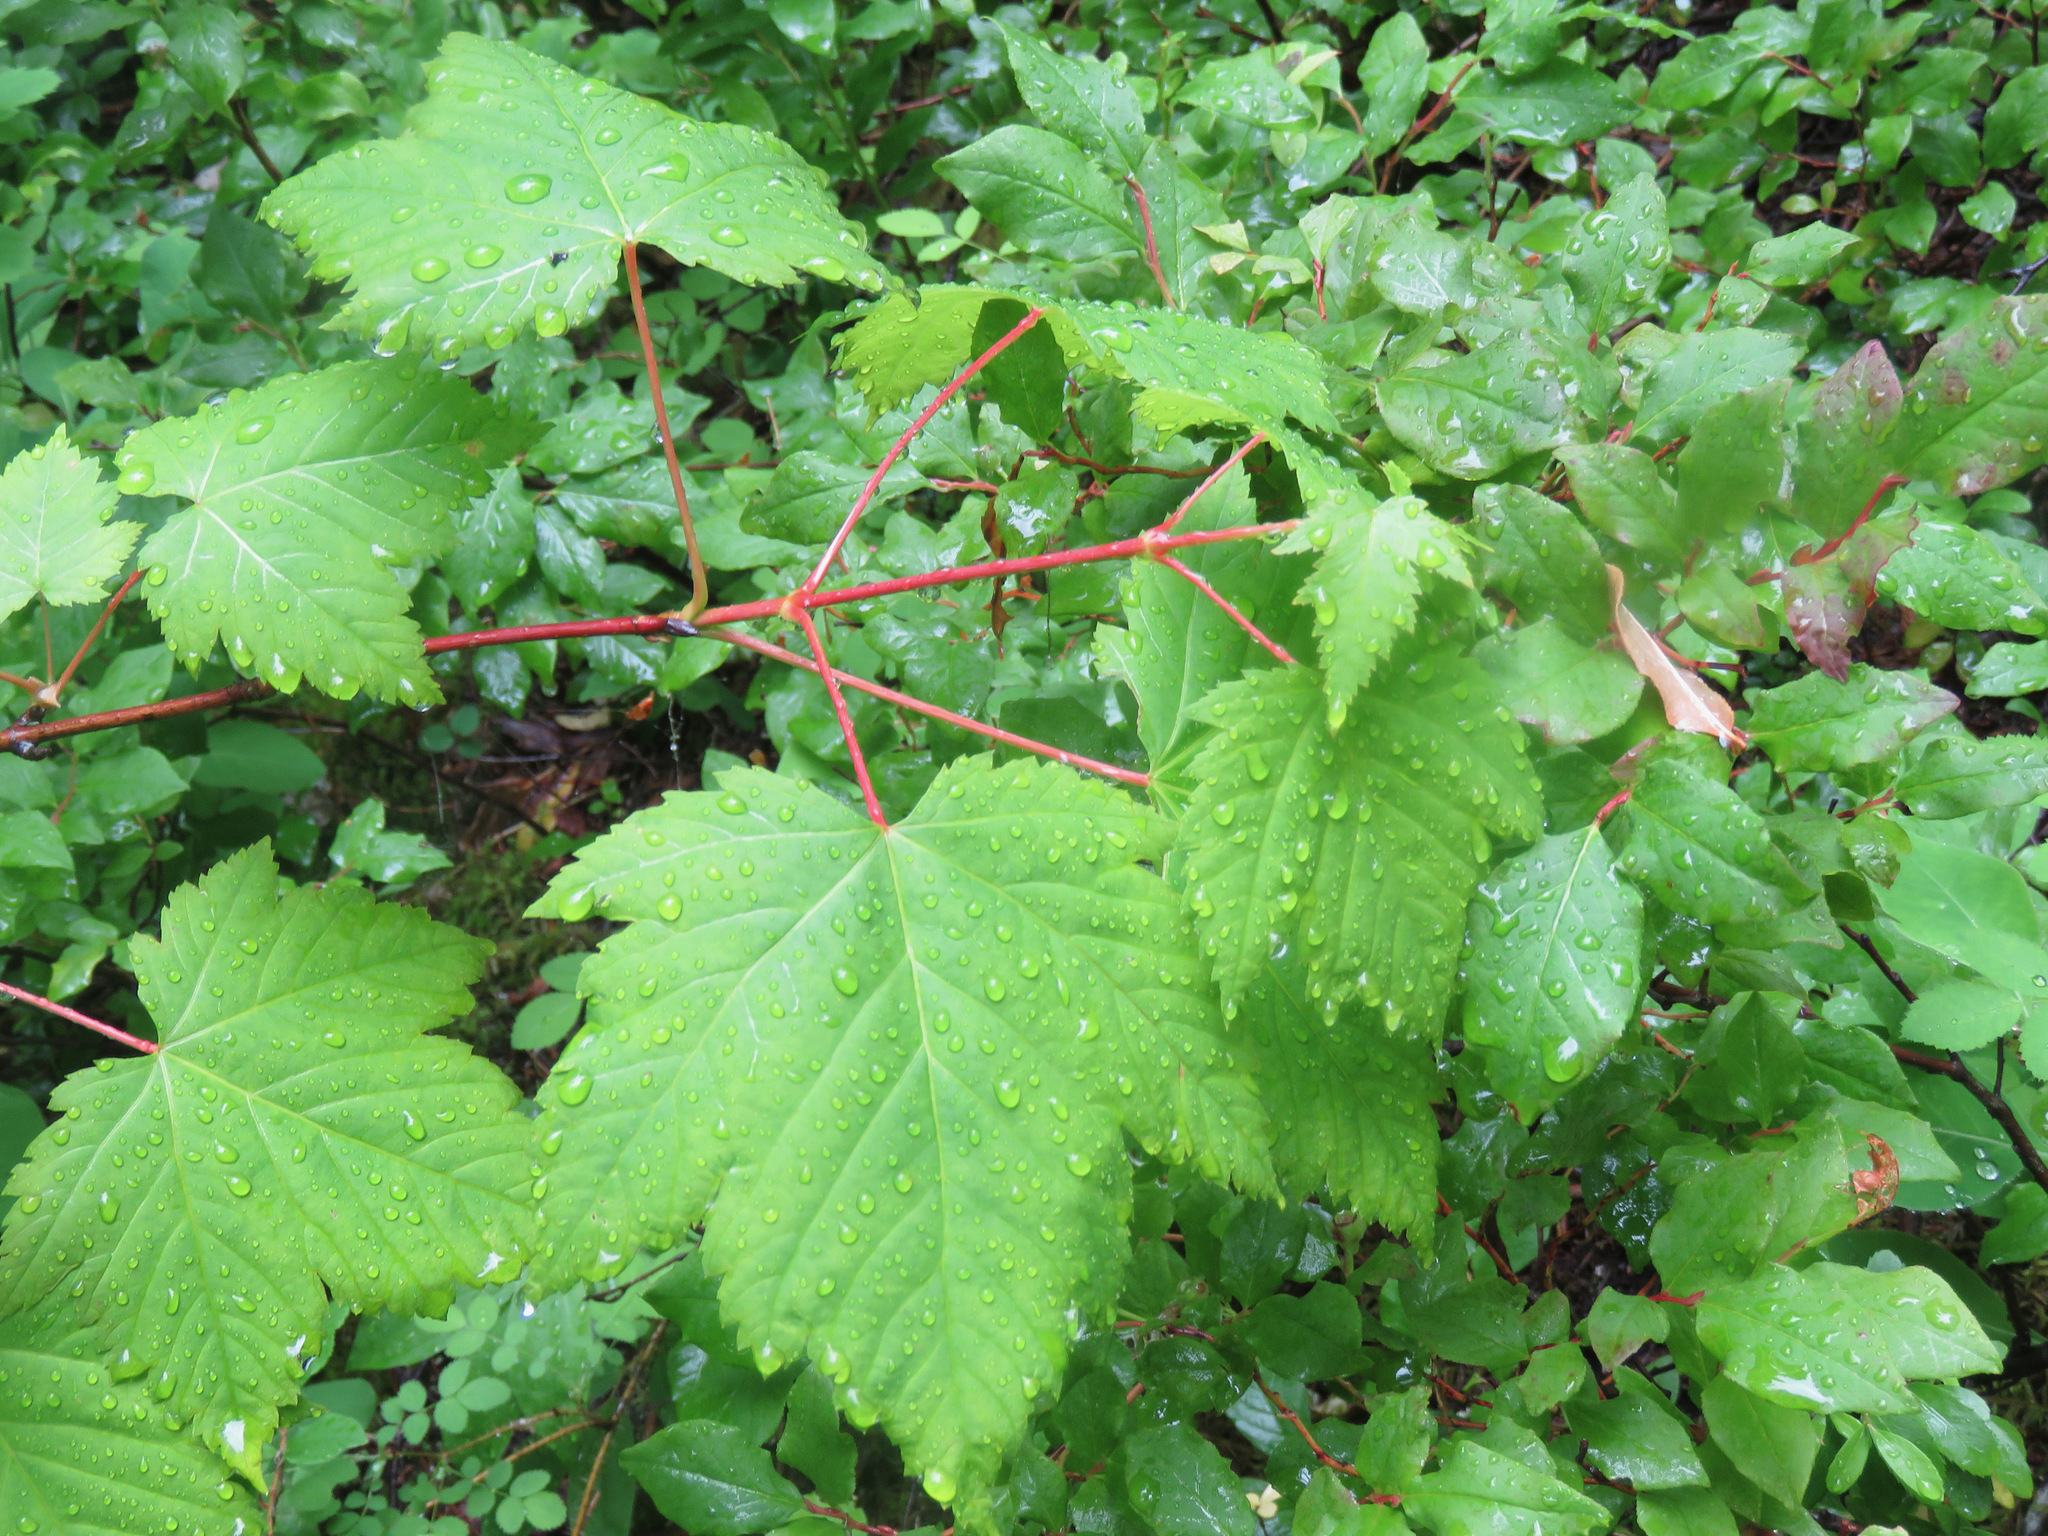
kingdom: Plantae
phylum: Tracheophyta
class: Magnoliopsida
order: Sapindales
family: Sapindaceae
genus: Acer
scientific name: Acer glabrum
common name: Rocky mountain maple
